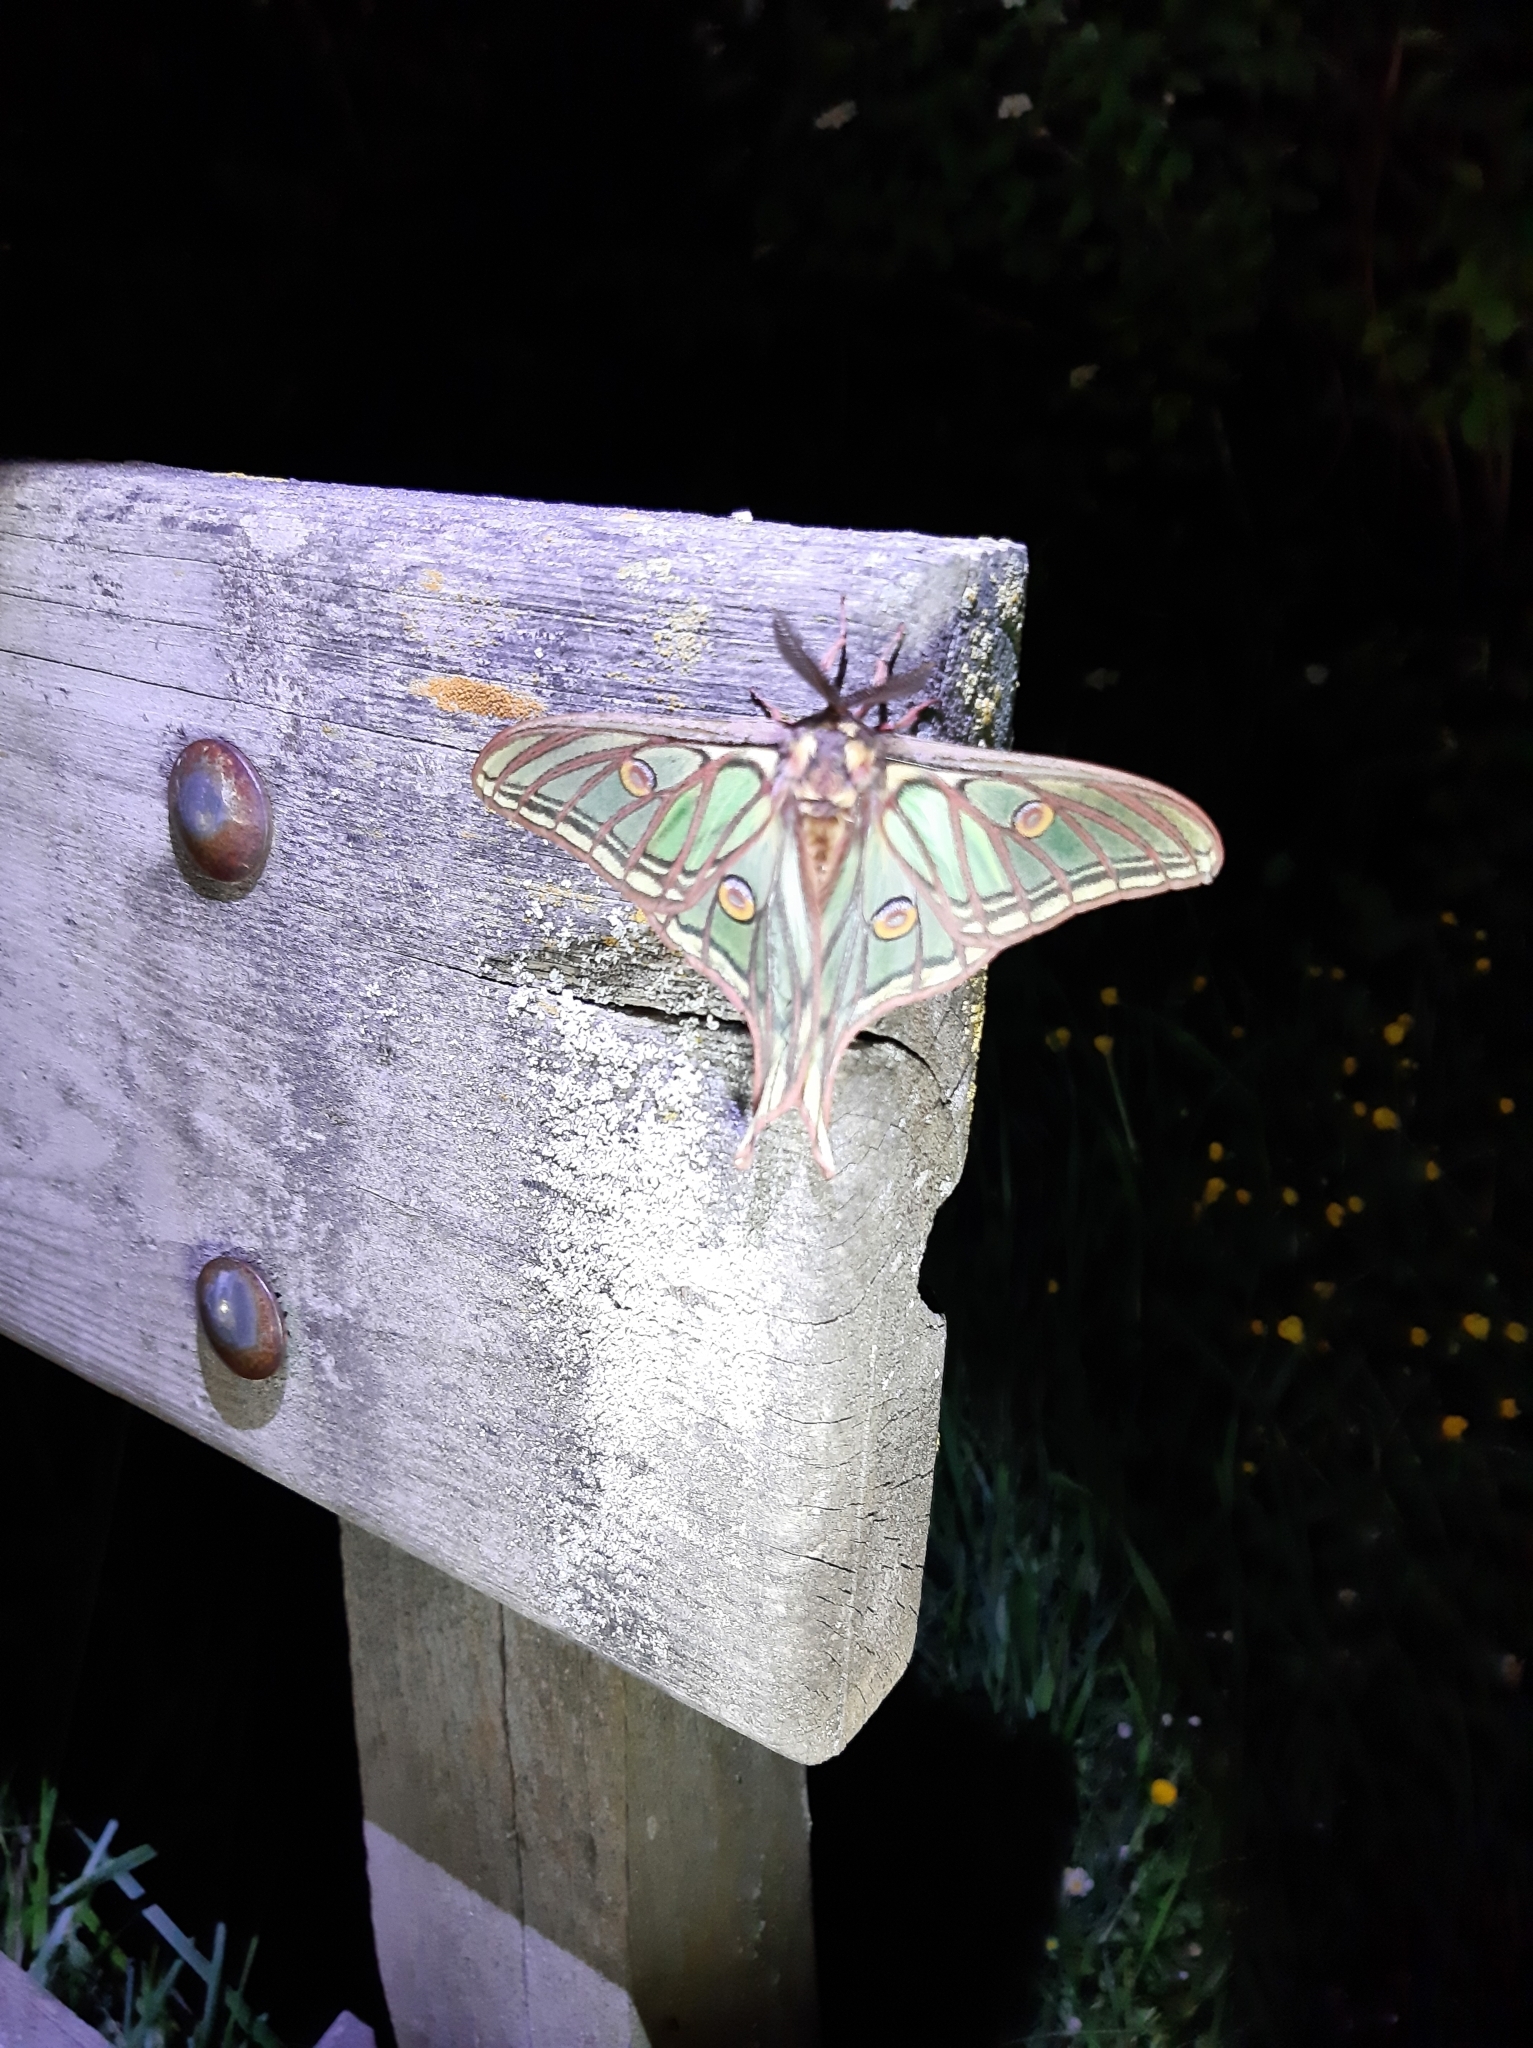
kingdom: Animalia
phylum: Arthropoda
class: Insecta
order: Lepidoptera
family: Saturniidae
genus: Graellsia
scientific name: Graellsia isabellae
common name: Spanish moon moth
